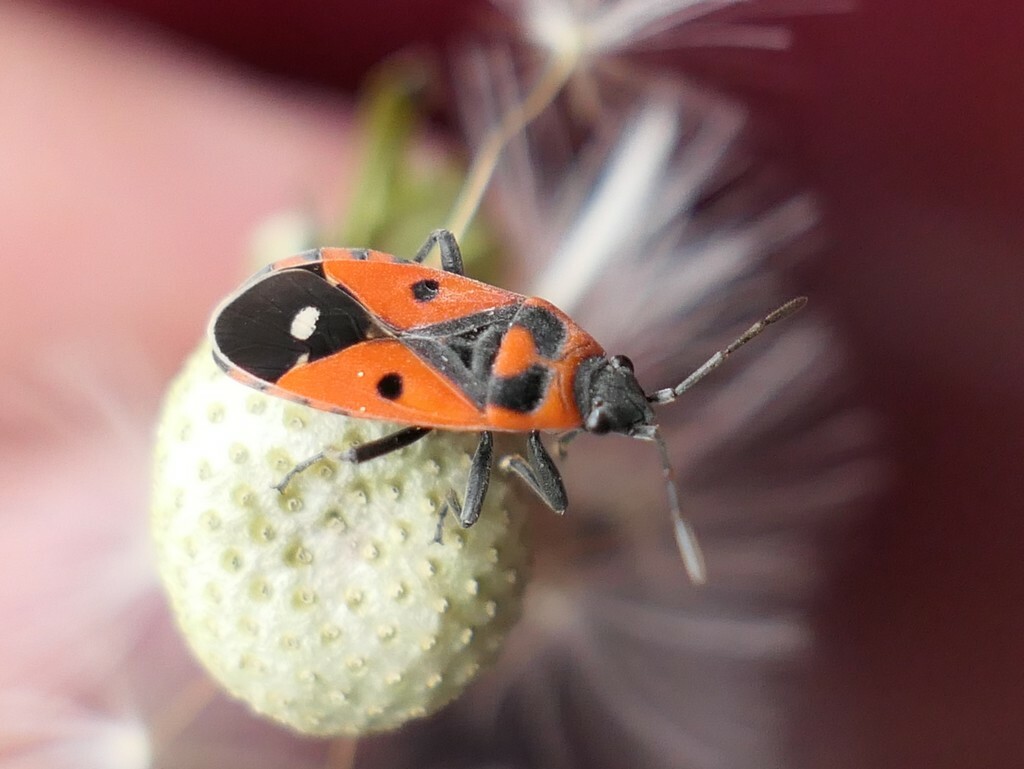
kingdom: Animalia
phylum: Arthropoda
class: Insecta
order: Hemiptera
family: Lygaeidae
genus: Melanocoryphus
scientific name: Melanocoryphus albomaculatus
